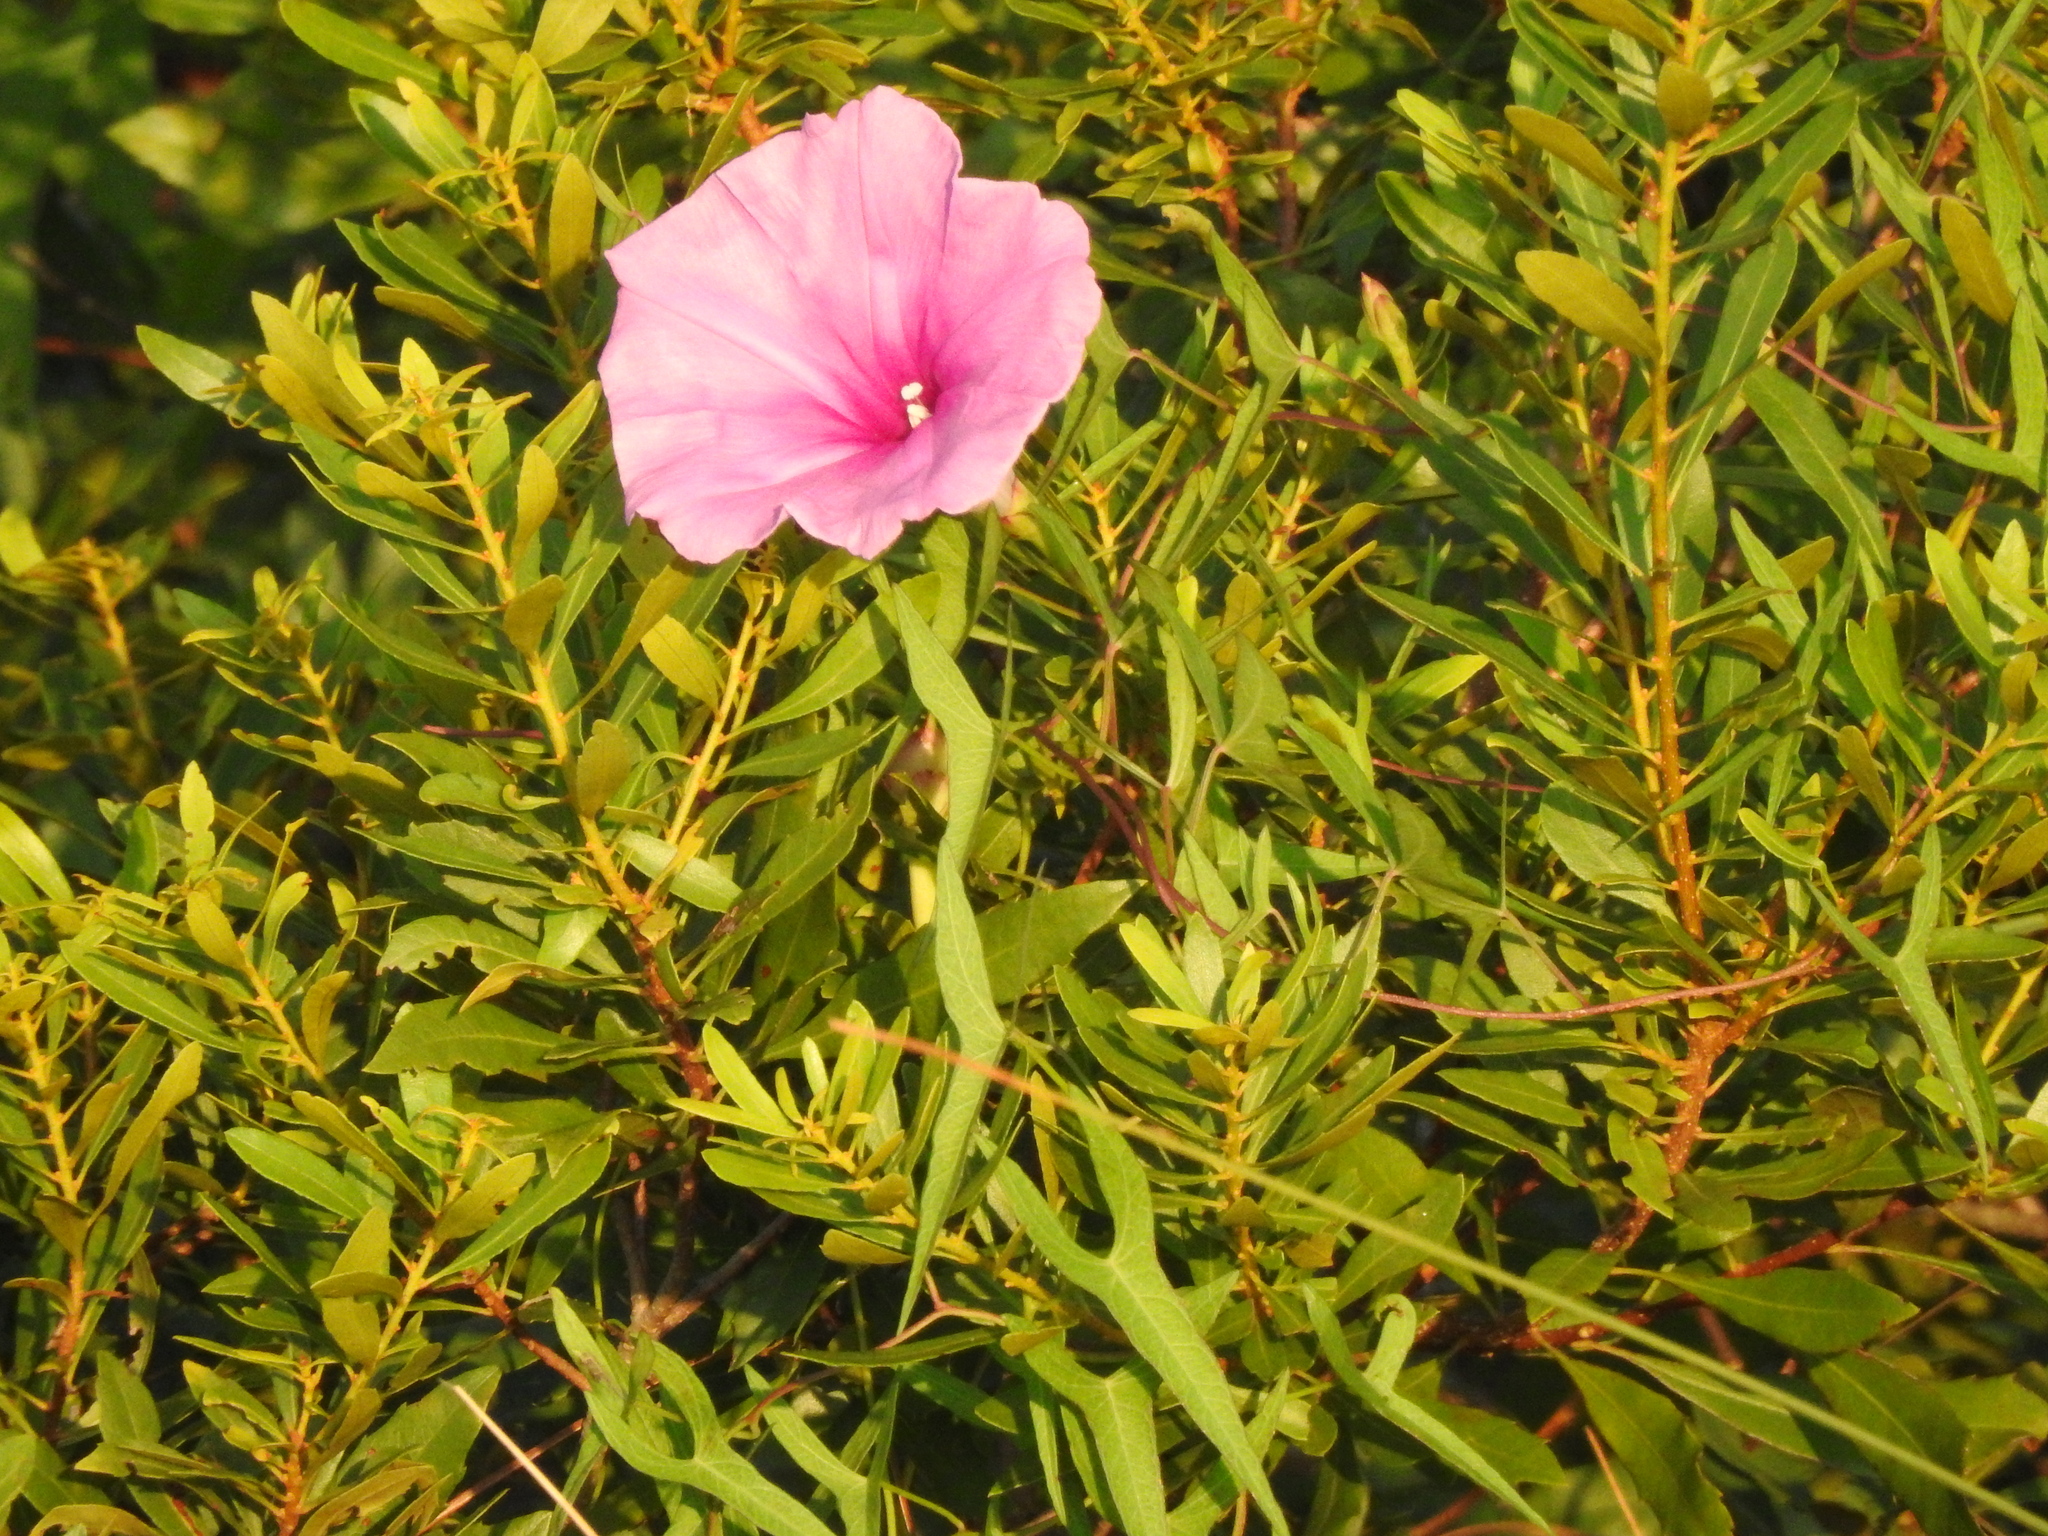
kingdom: Plantae
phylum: Tracheophyta
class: Magnoliopsida
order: Solanales
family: Convolvulaceae
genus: Ipomoea
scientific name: Ipomoea sagittata
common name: Saltmarsh morning glory
